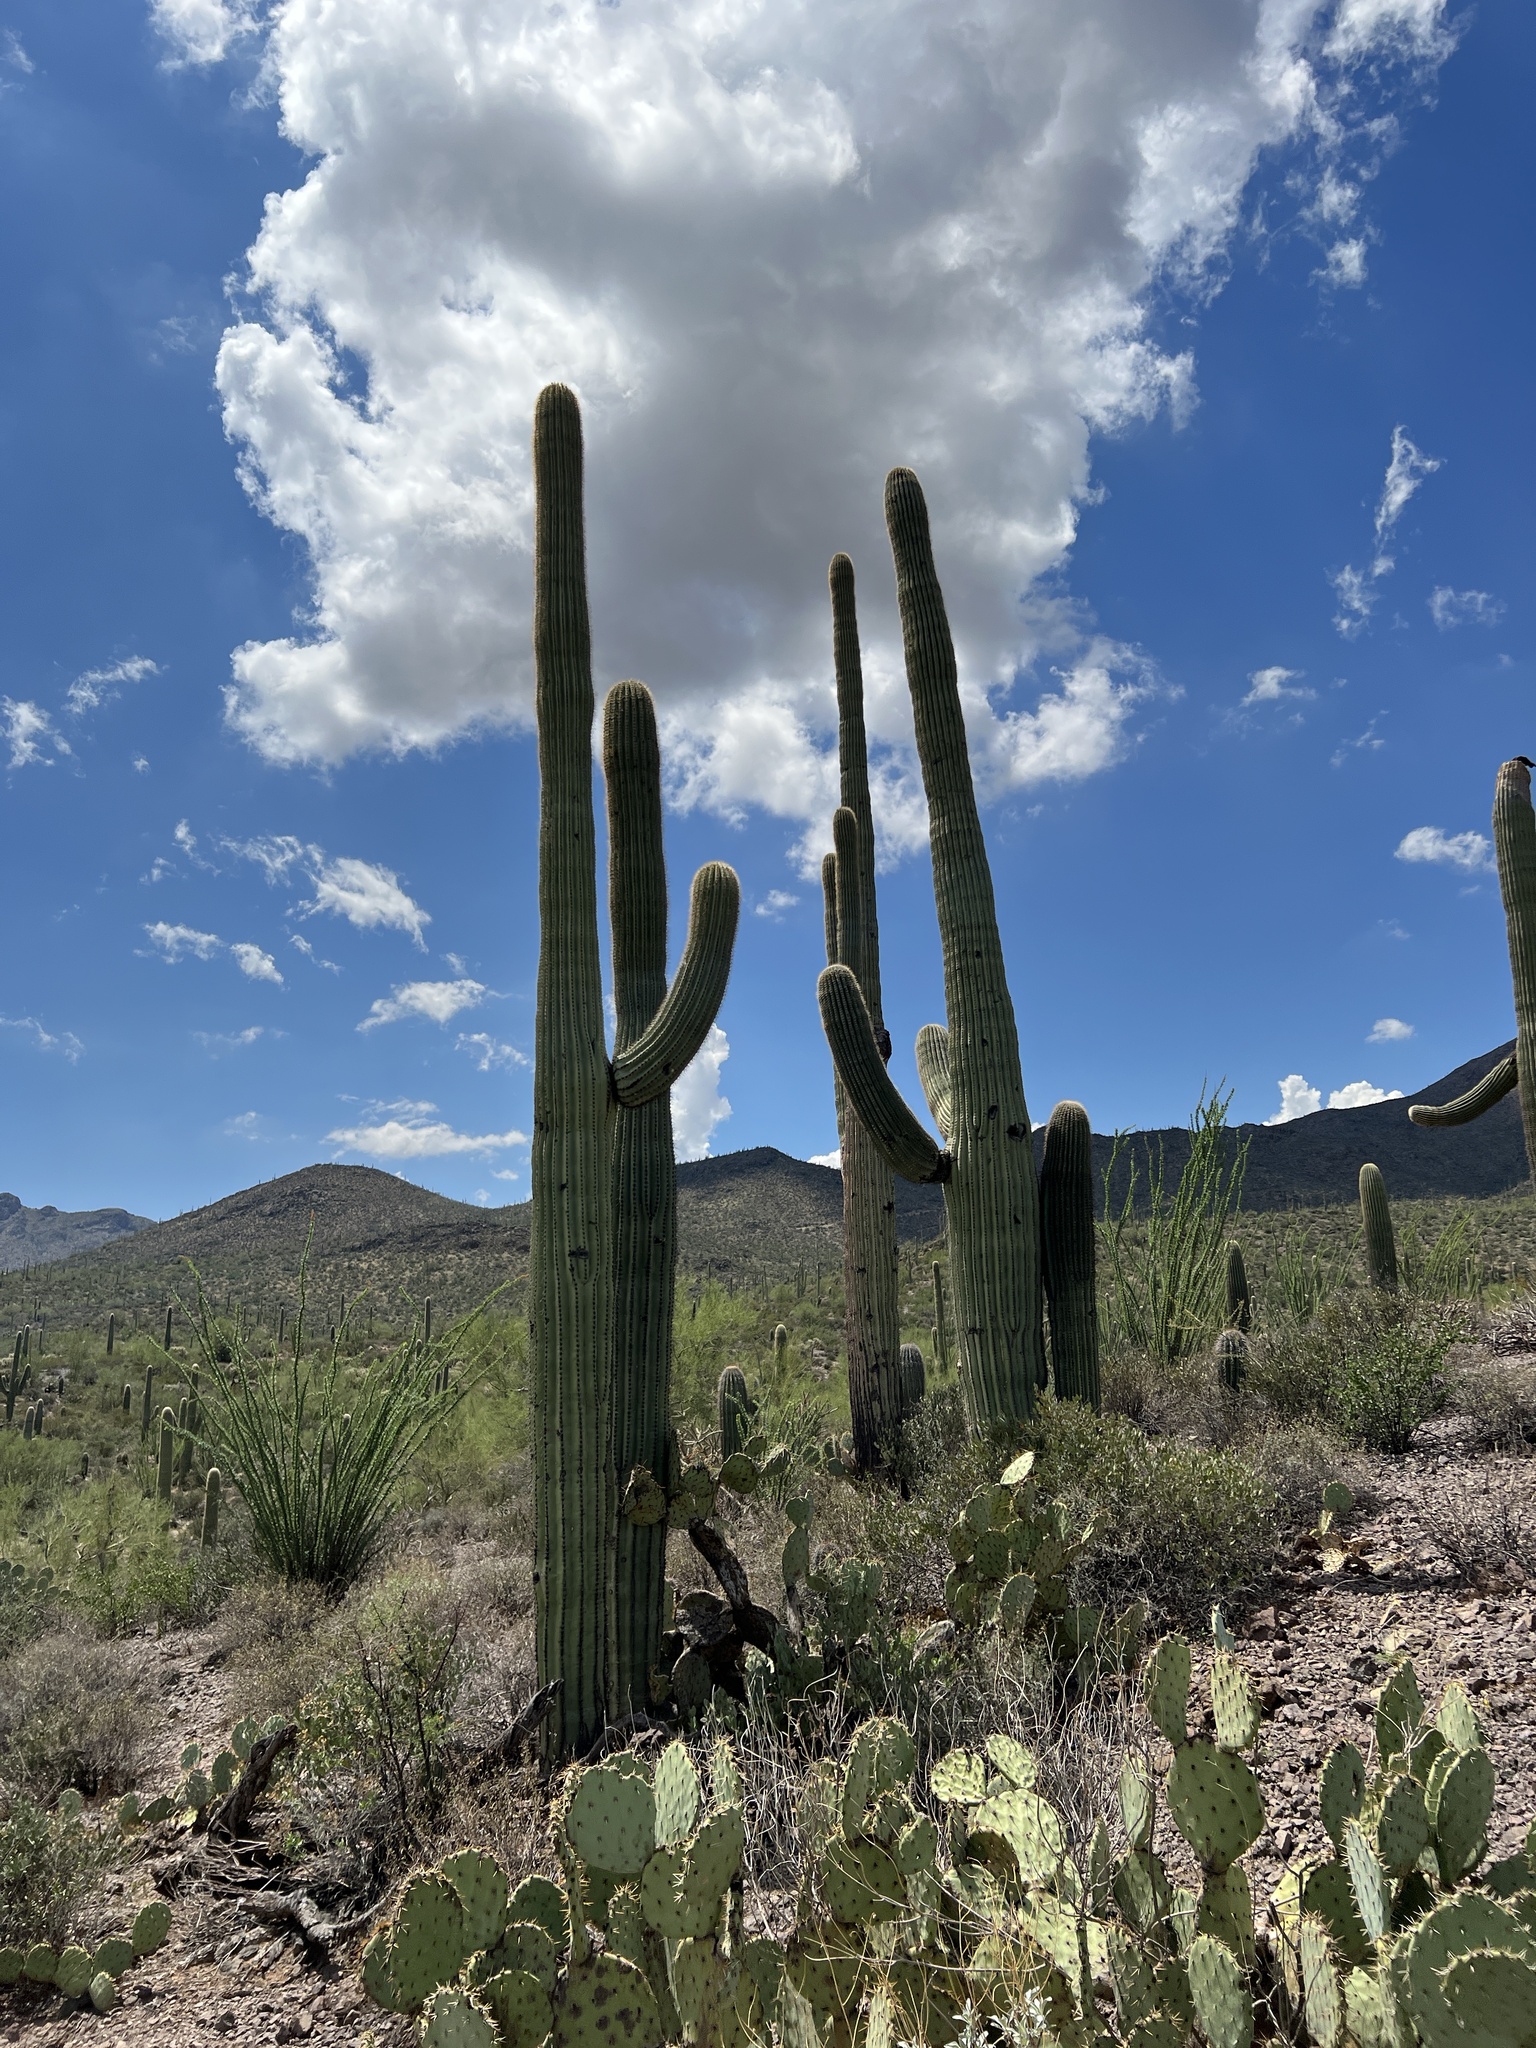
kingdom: Plantae
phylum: Tracheophyta
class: Magnoliopsida
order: Caryophyllales
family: Cactaceae
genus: Carnegiea
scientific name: Carnegiea gigantea
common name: Saguaro
